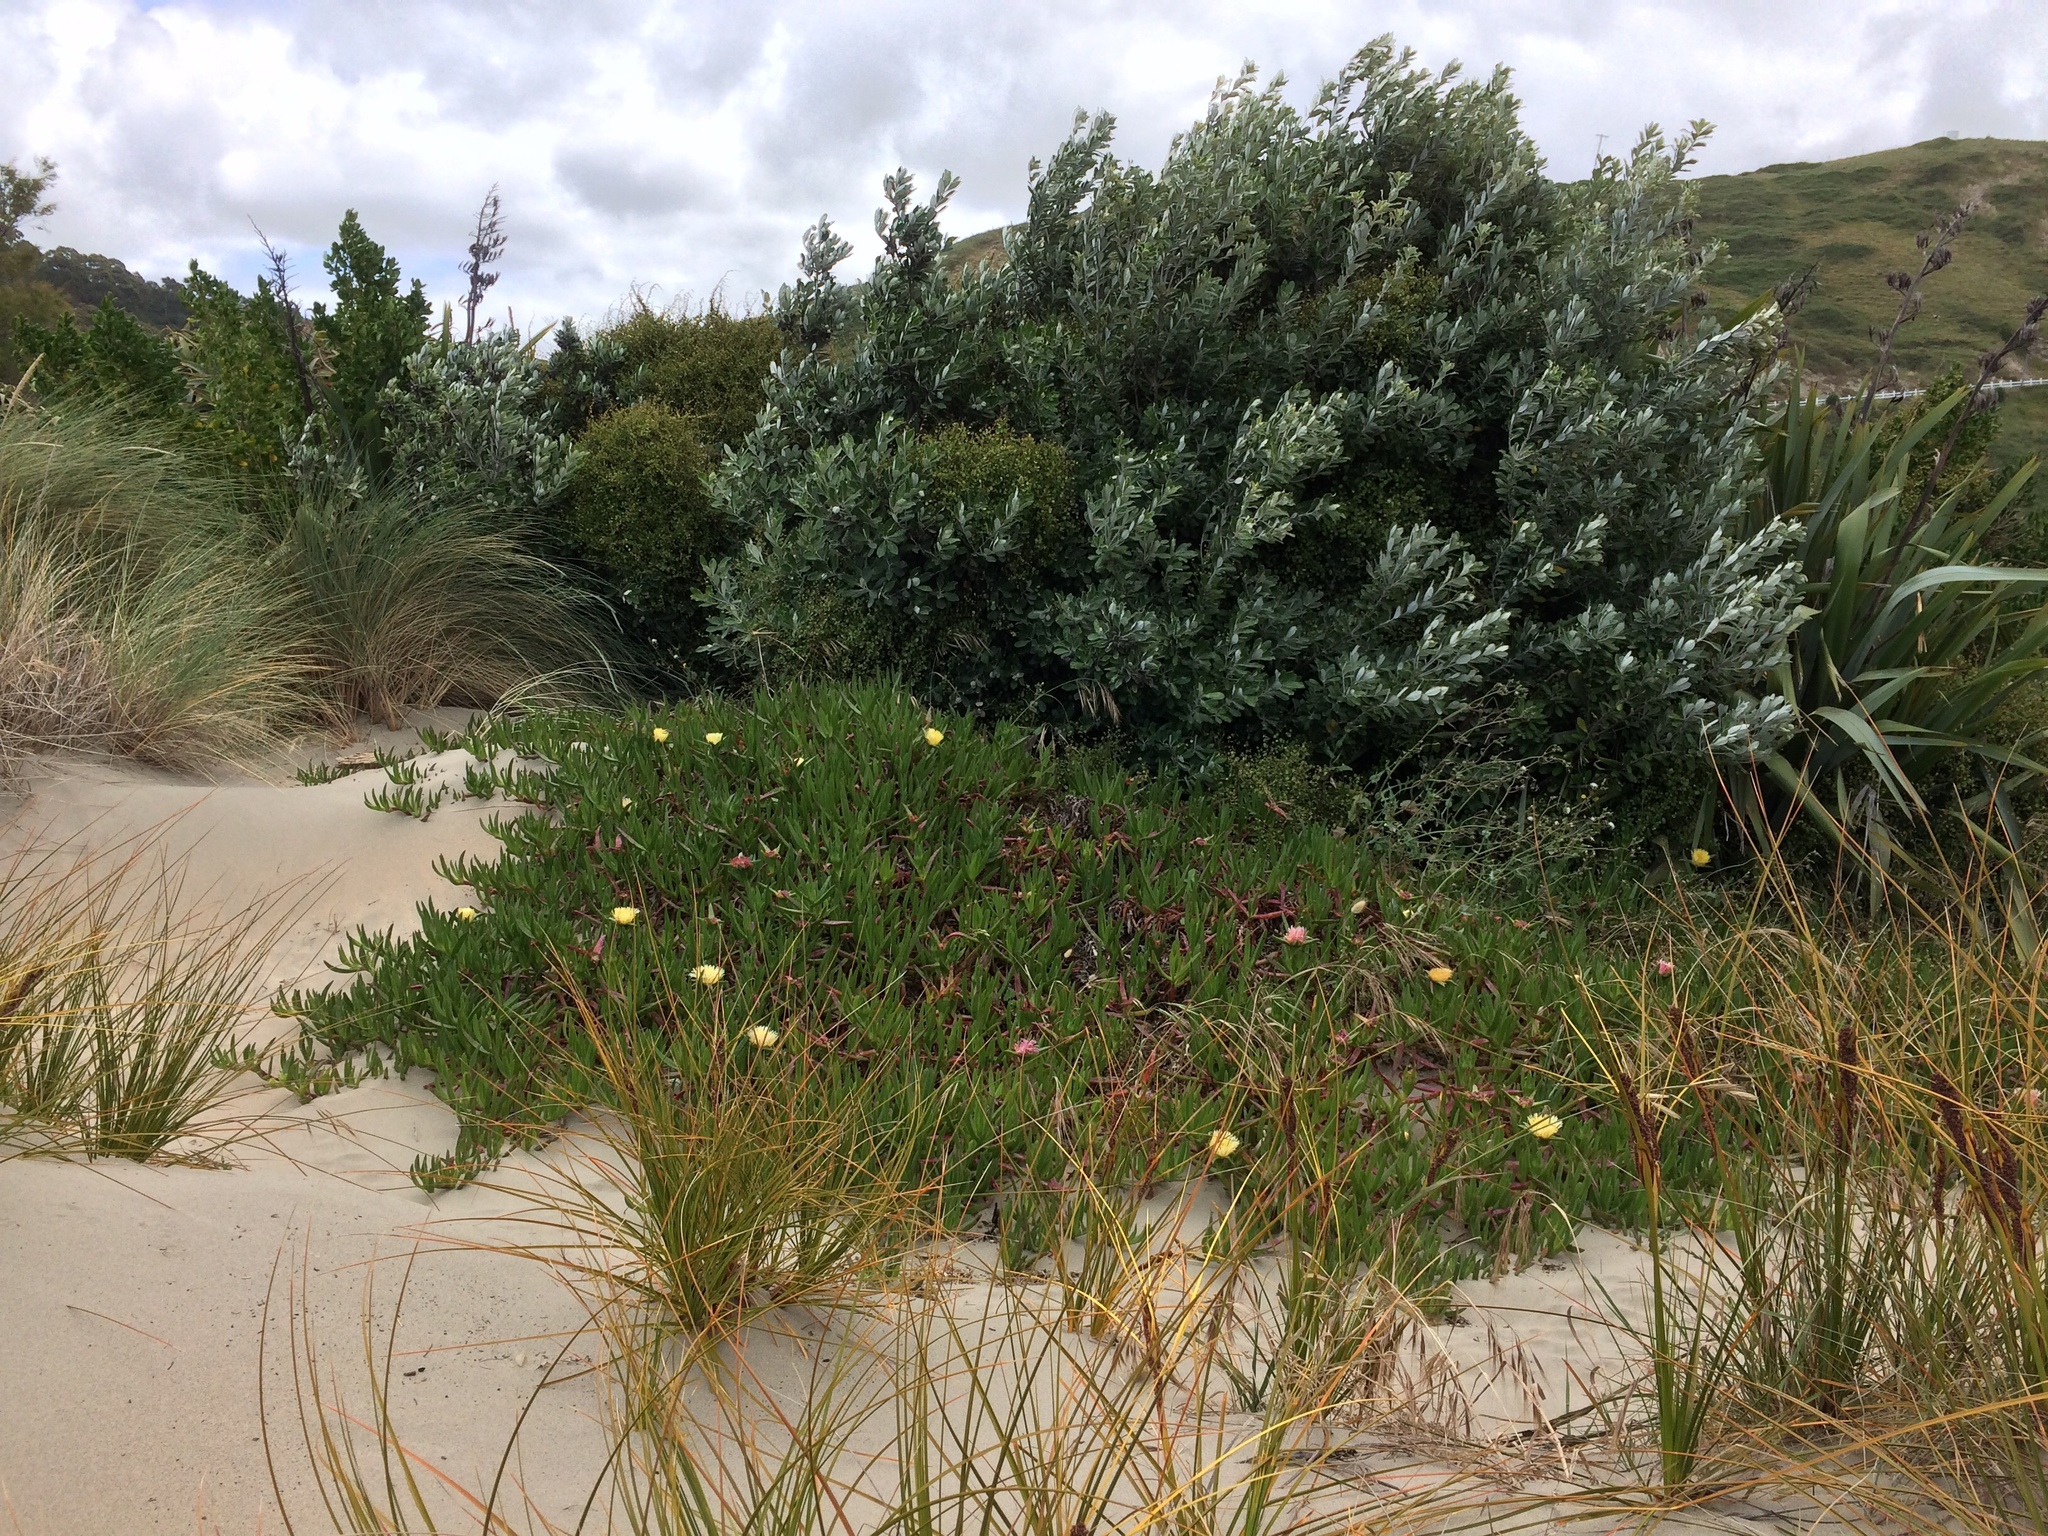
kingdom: Plantae
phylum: Tracheophyta
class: Magnoliopsida
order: Caryophyllales
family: Aizoaceae
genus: Carpobrotus
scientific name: Carpobrotus edulis
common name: Hottentot-fig
